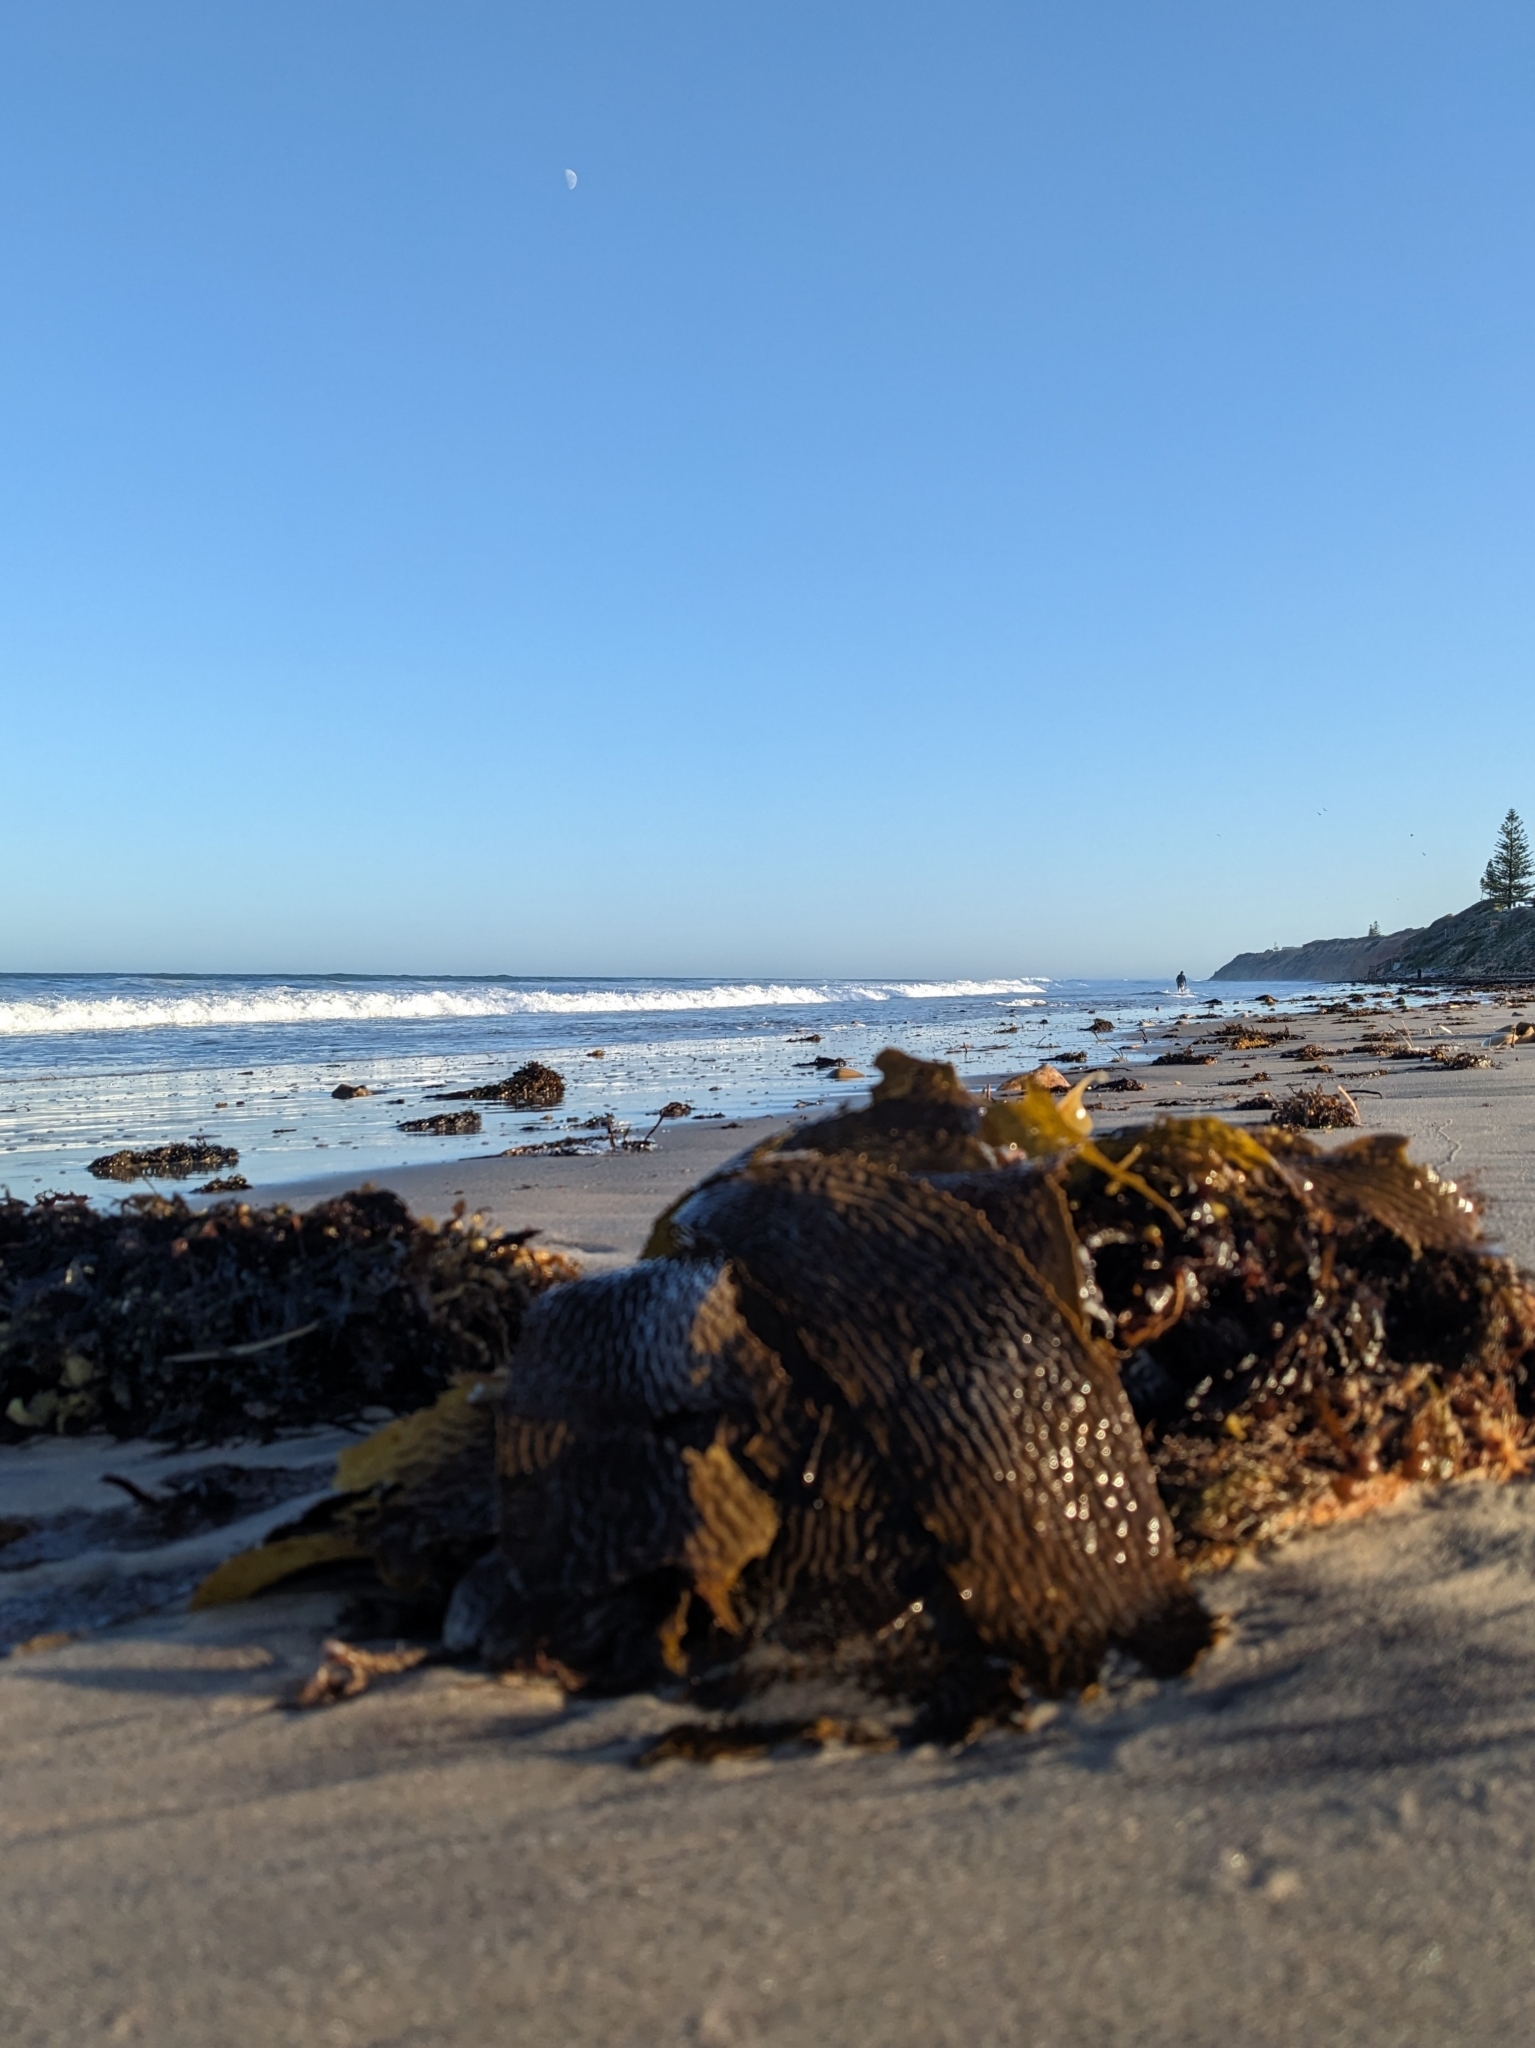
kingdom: Chromista
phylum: Ochrophyta
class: Phaeophyceae
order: Laminariales
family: Lessoniaceae
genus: Ecklonia
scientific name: Ecklonia radiata
